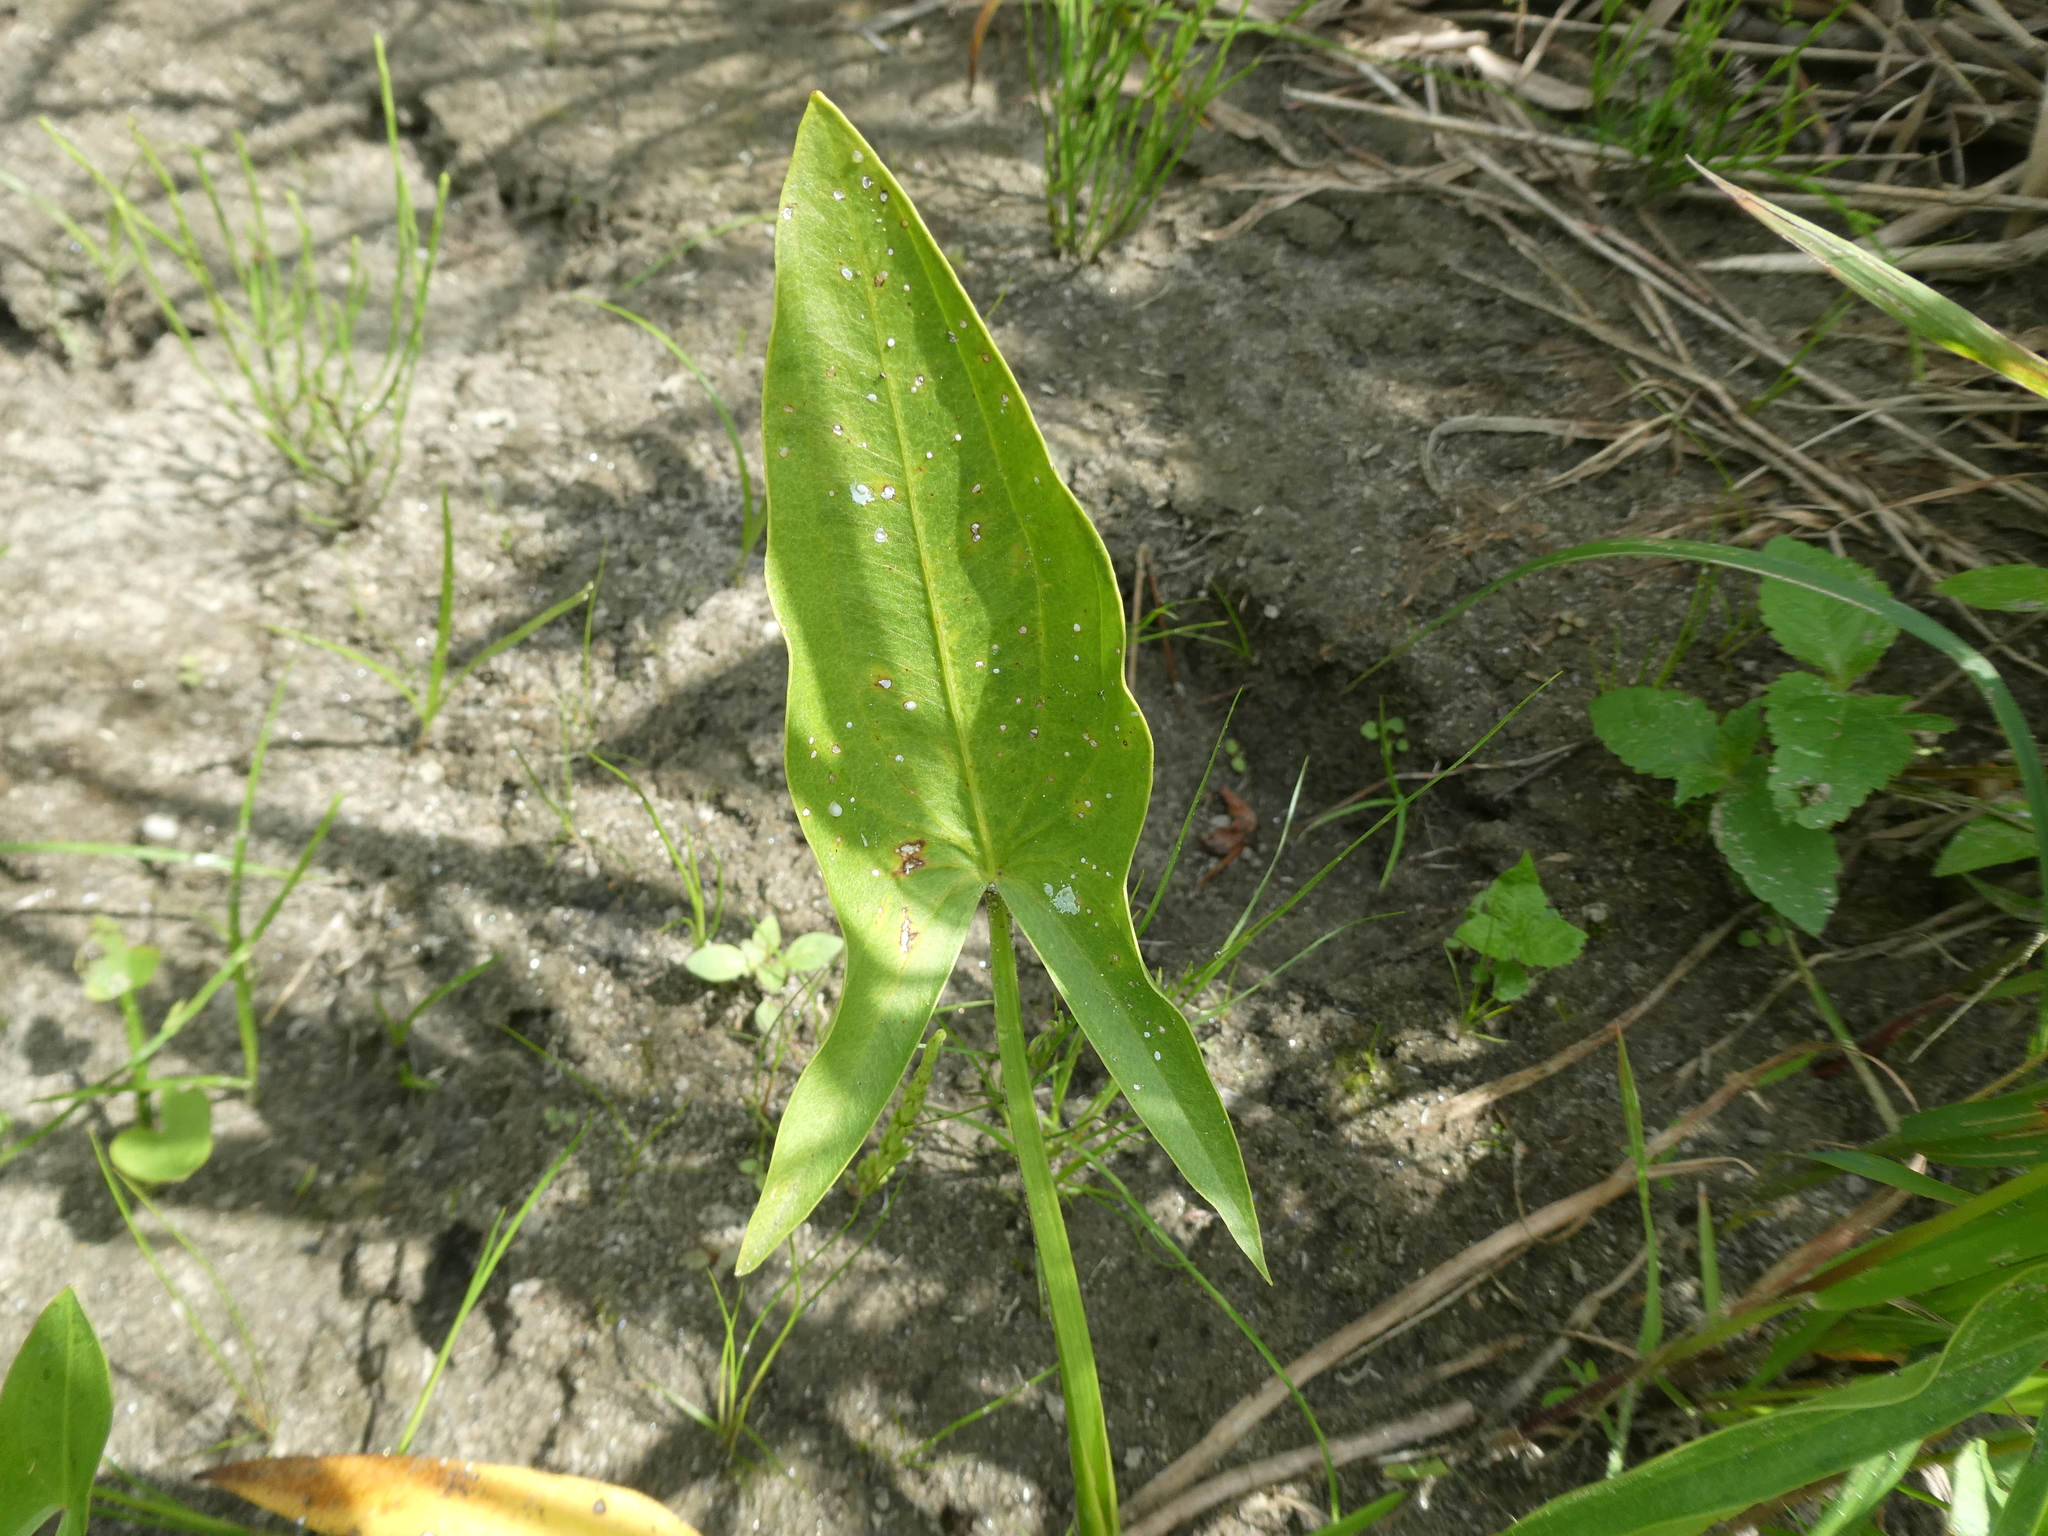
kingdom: Plantae
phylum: Tracheophyta
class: Liliopsida
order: Alismatales
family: Alismataceae
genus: Sagittaria
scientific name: Sagittaria latifolia
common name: Duck-potato
